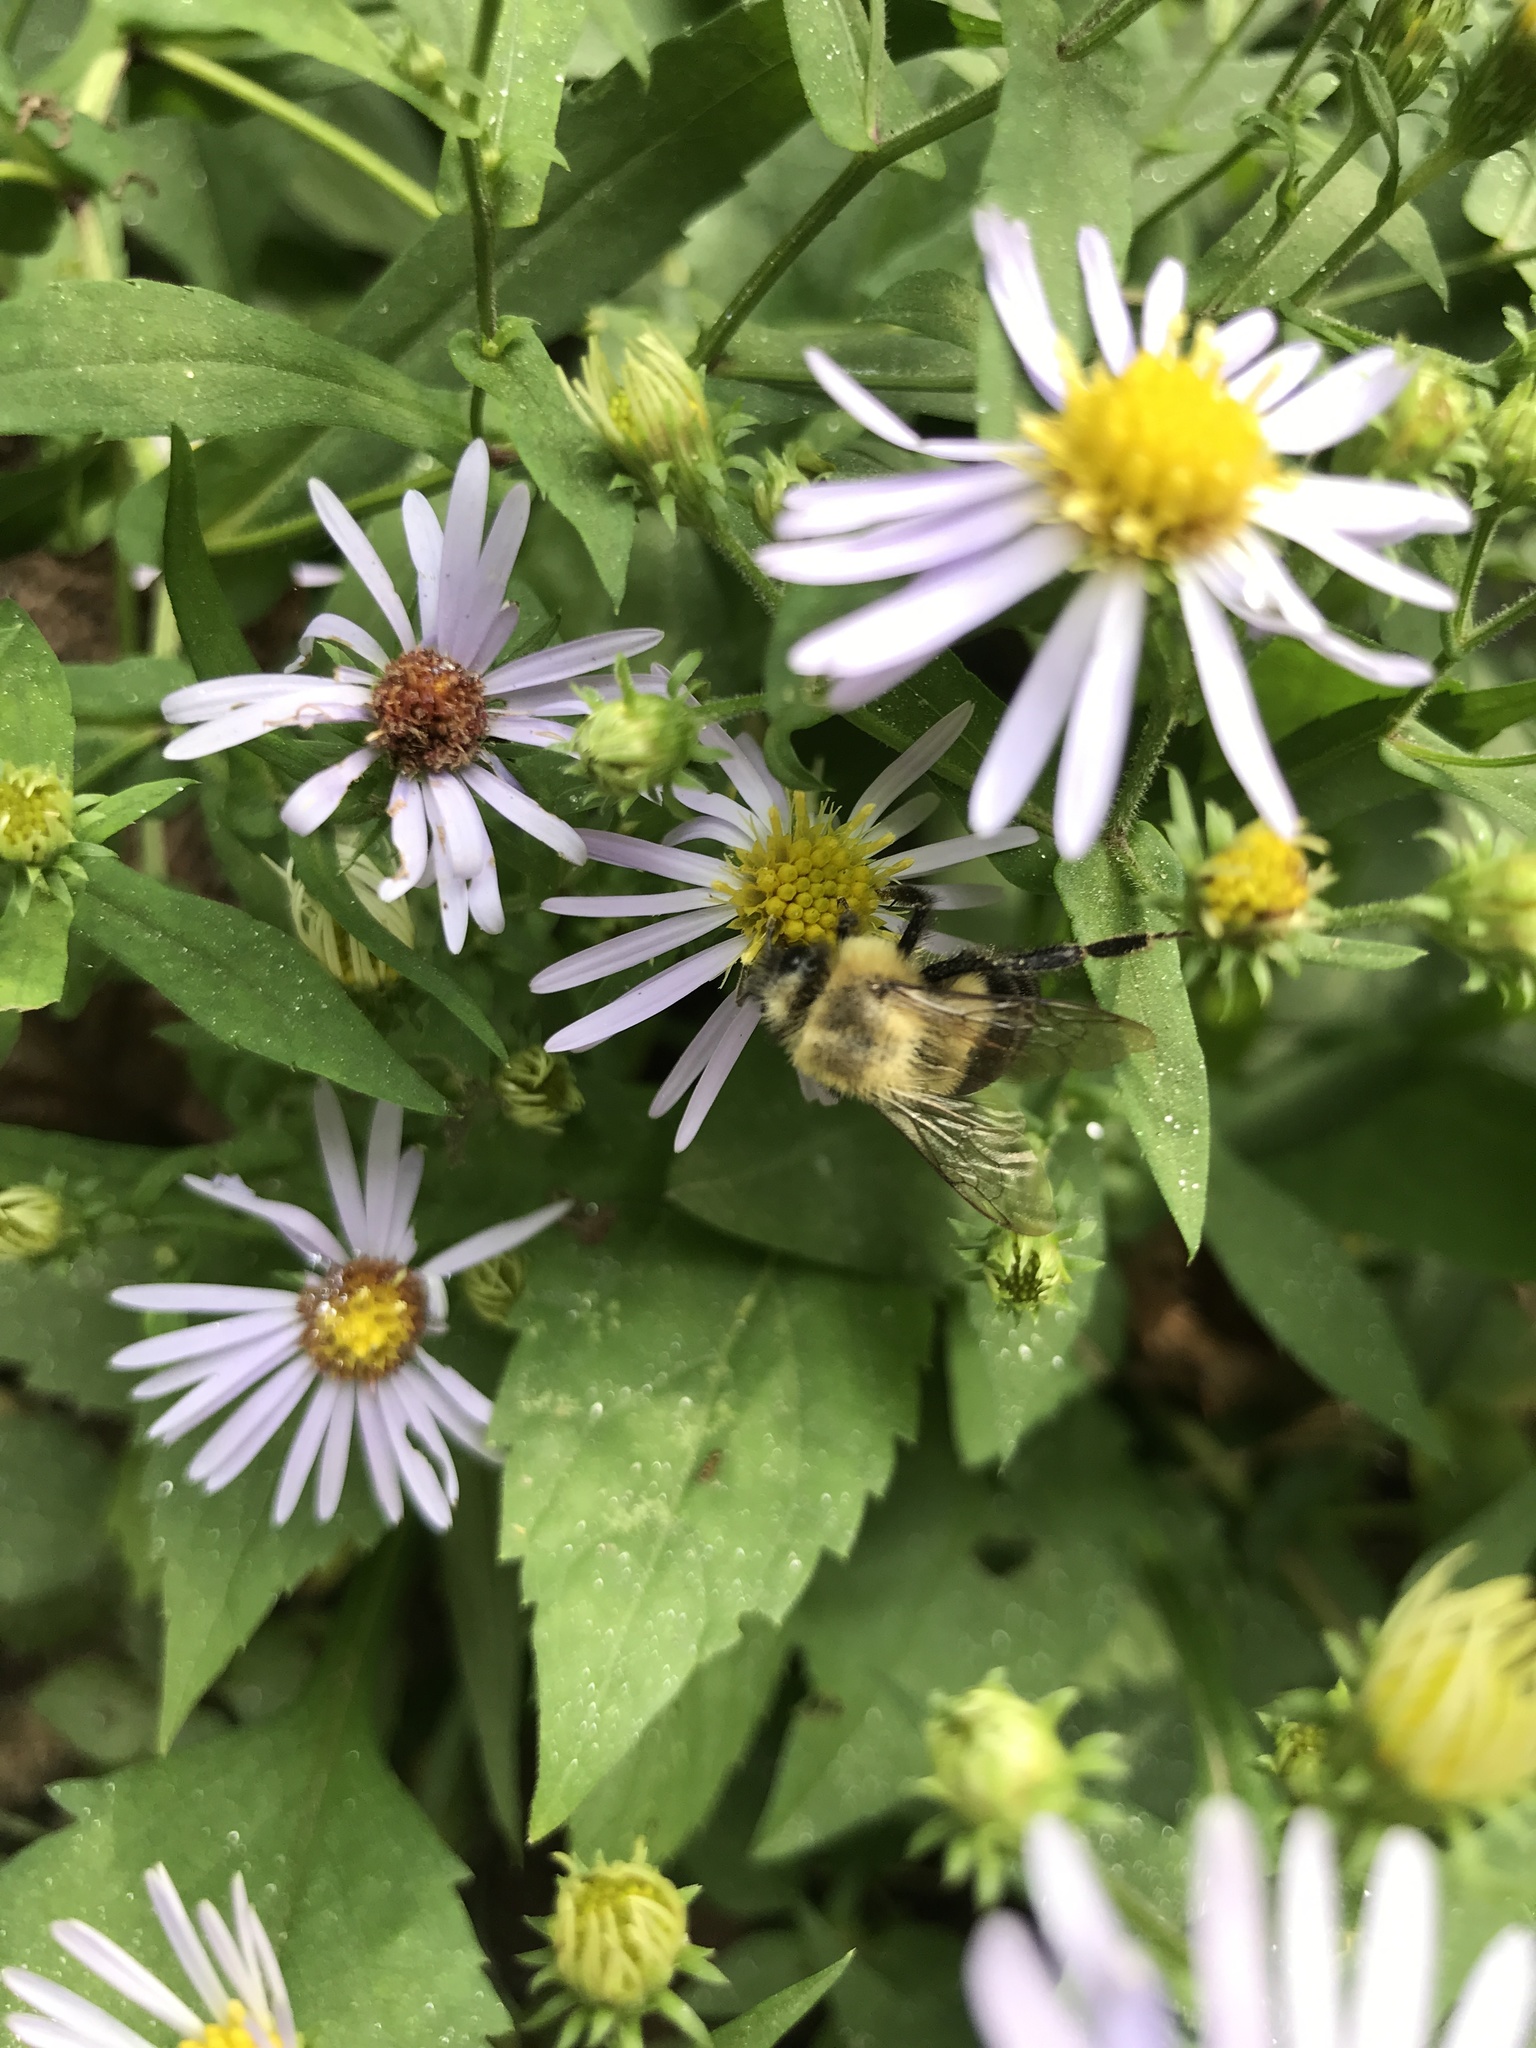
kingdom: Animalia
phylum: Arthropoda
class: Insecta
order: Hymenoptera
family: Apidae
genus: Bombus
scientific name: Bombus impatiens
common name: Common eastern bumble bee
